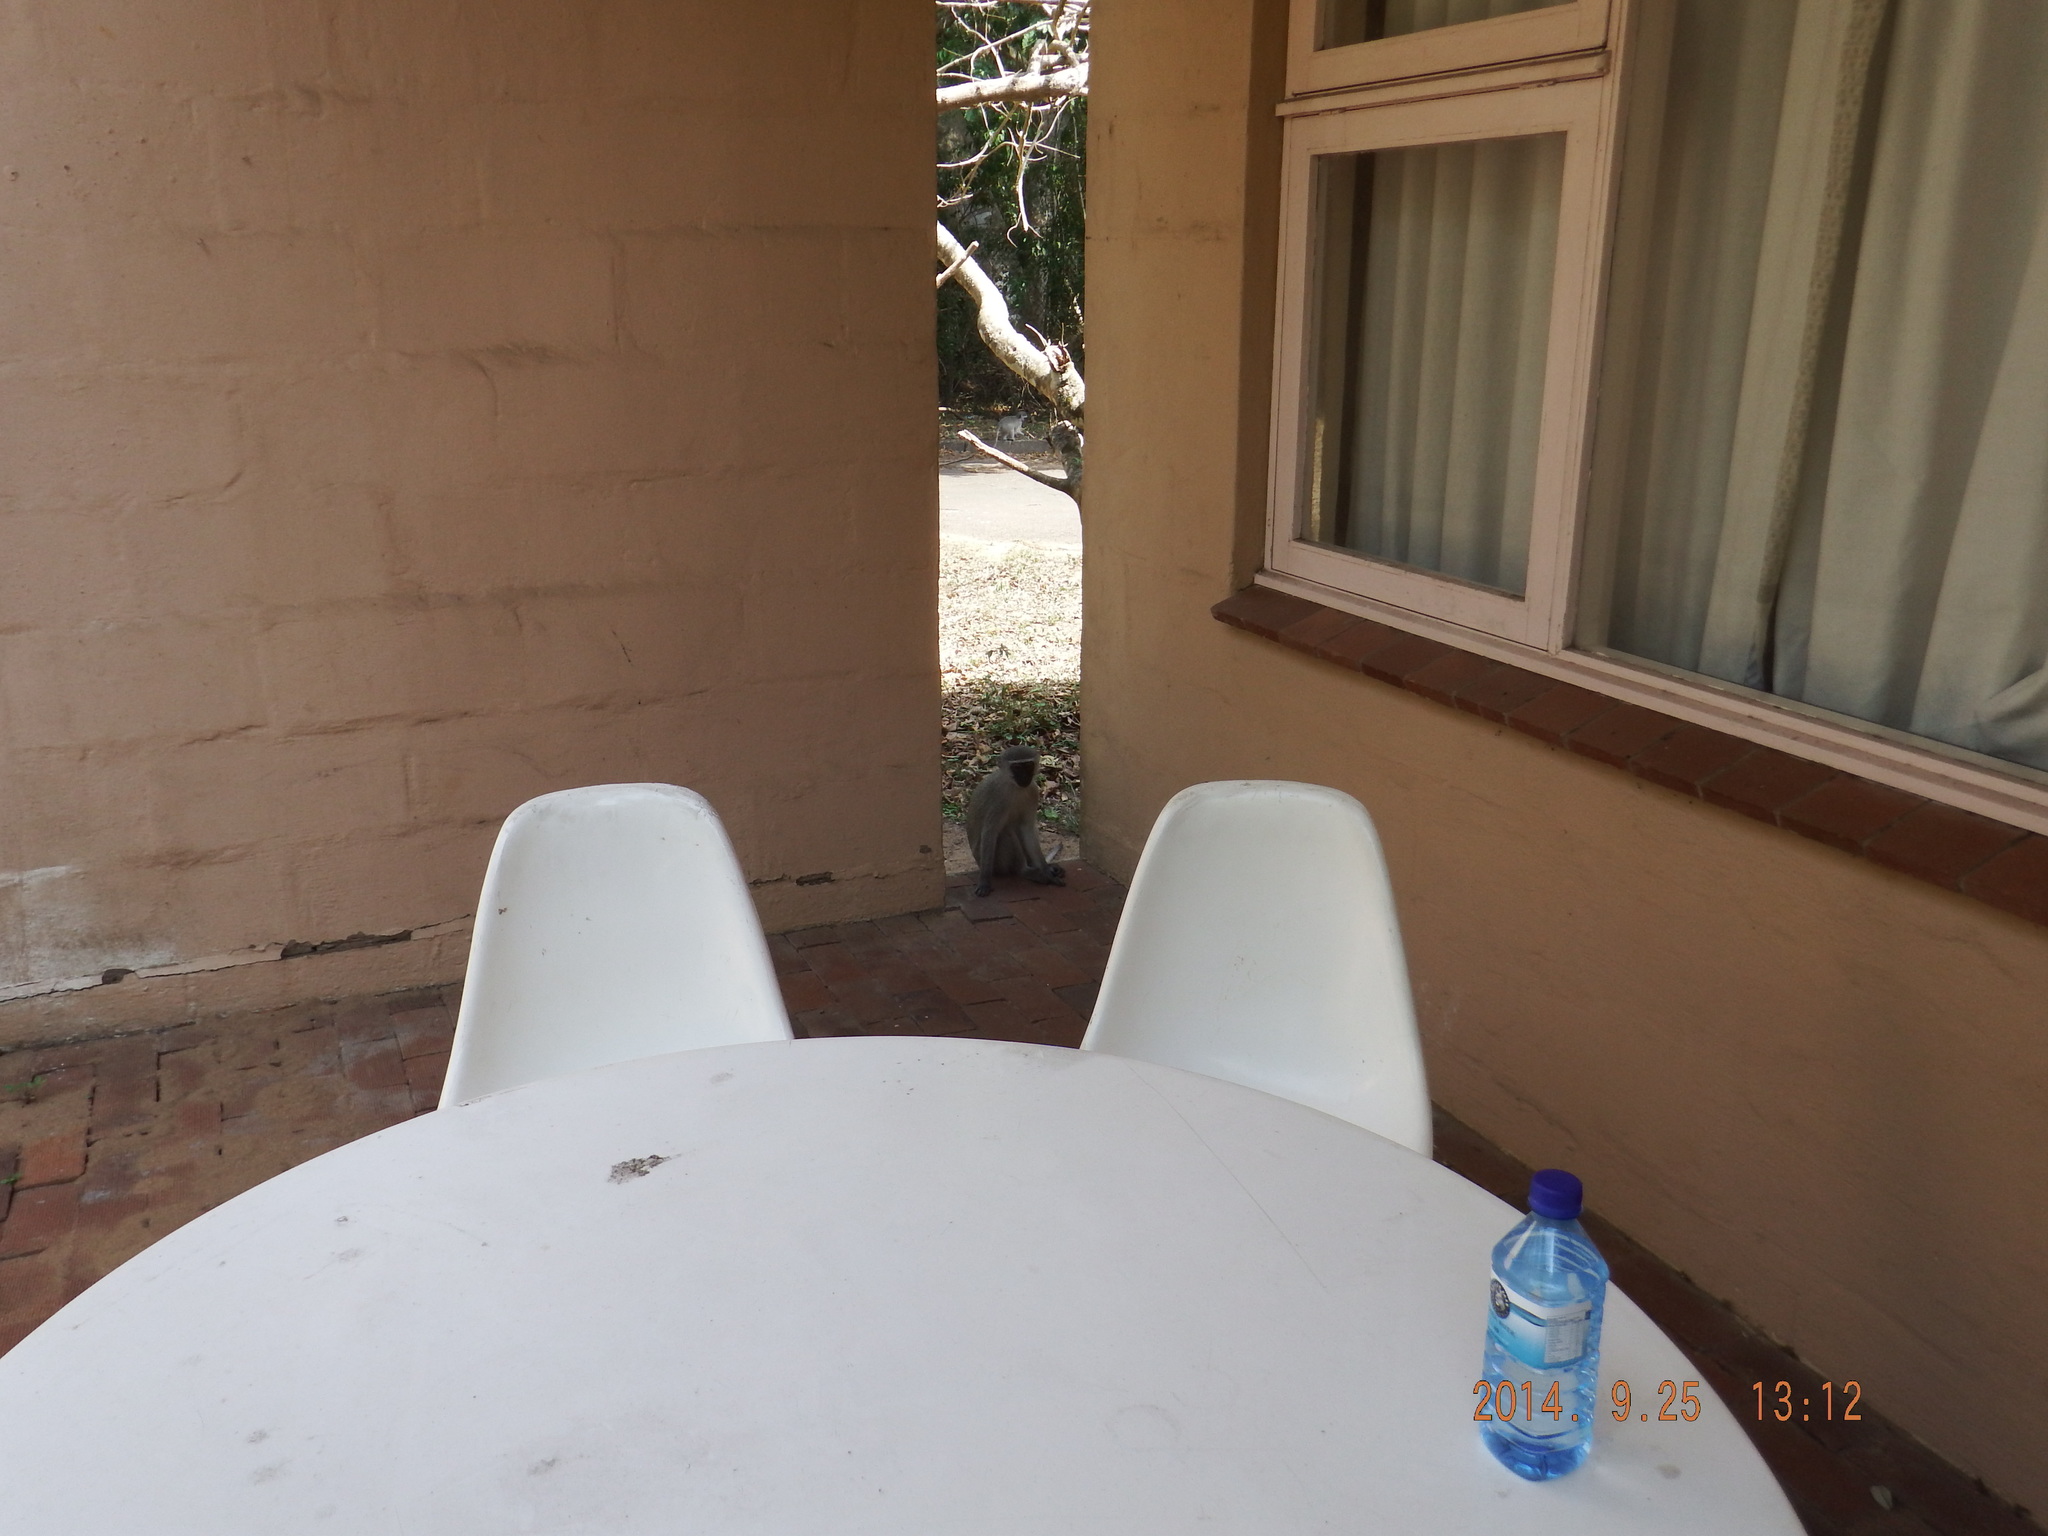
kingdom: Animalia
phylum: Chordata
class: Mammalia
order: Primates
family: Cercopithecidae
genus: Chlorocebus
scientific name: Chlorocebus pygerythrus
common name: Vervet monkey
